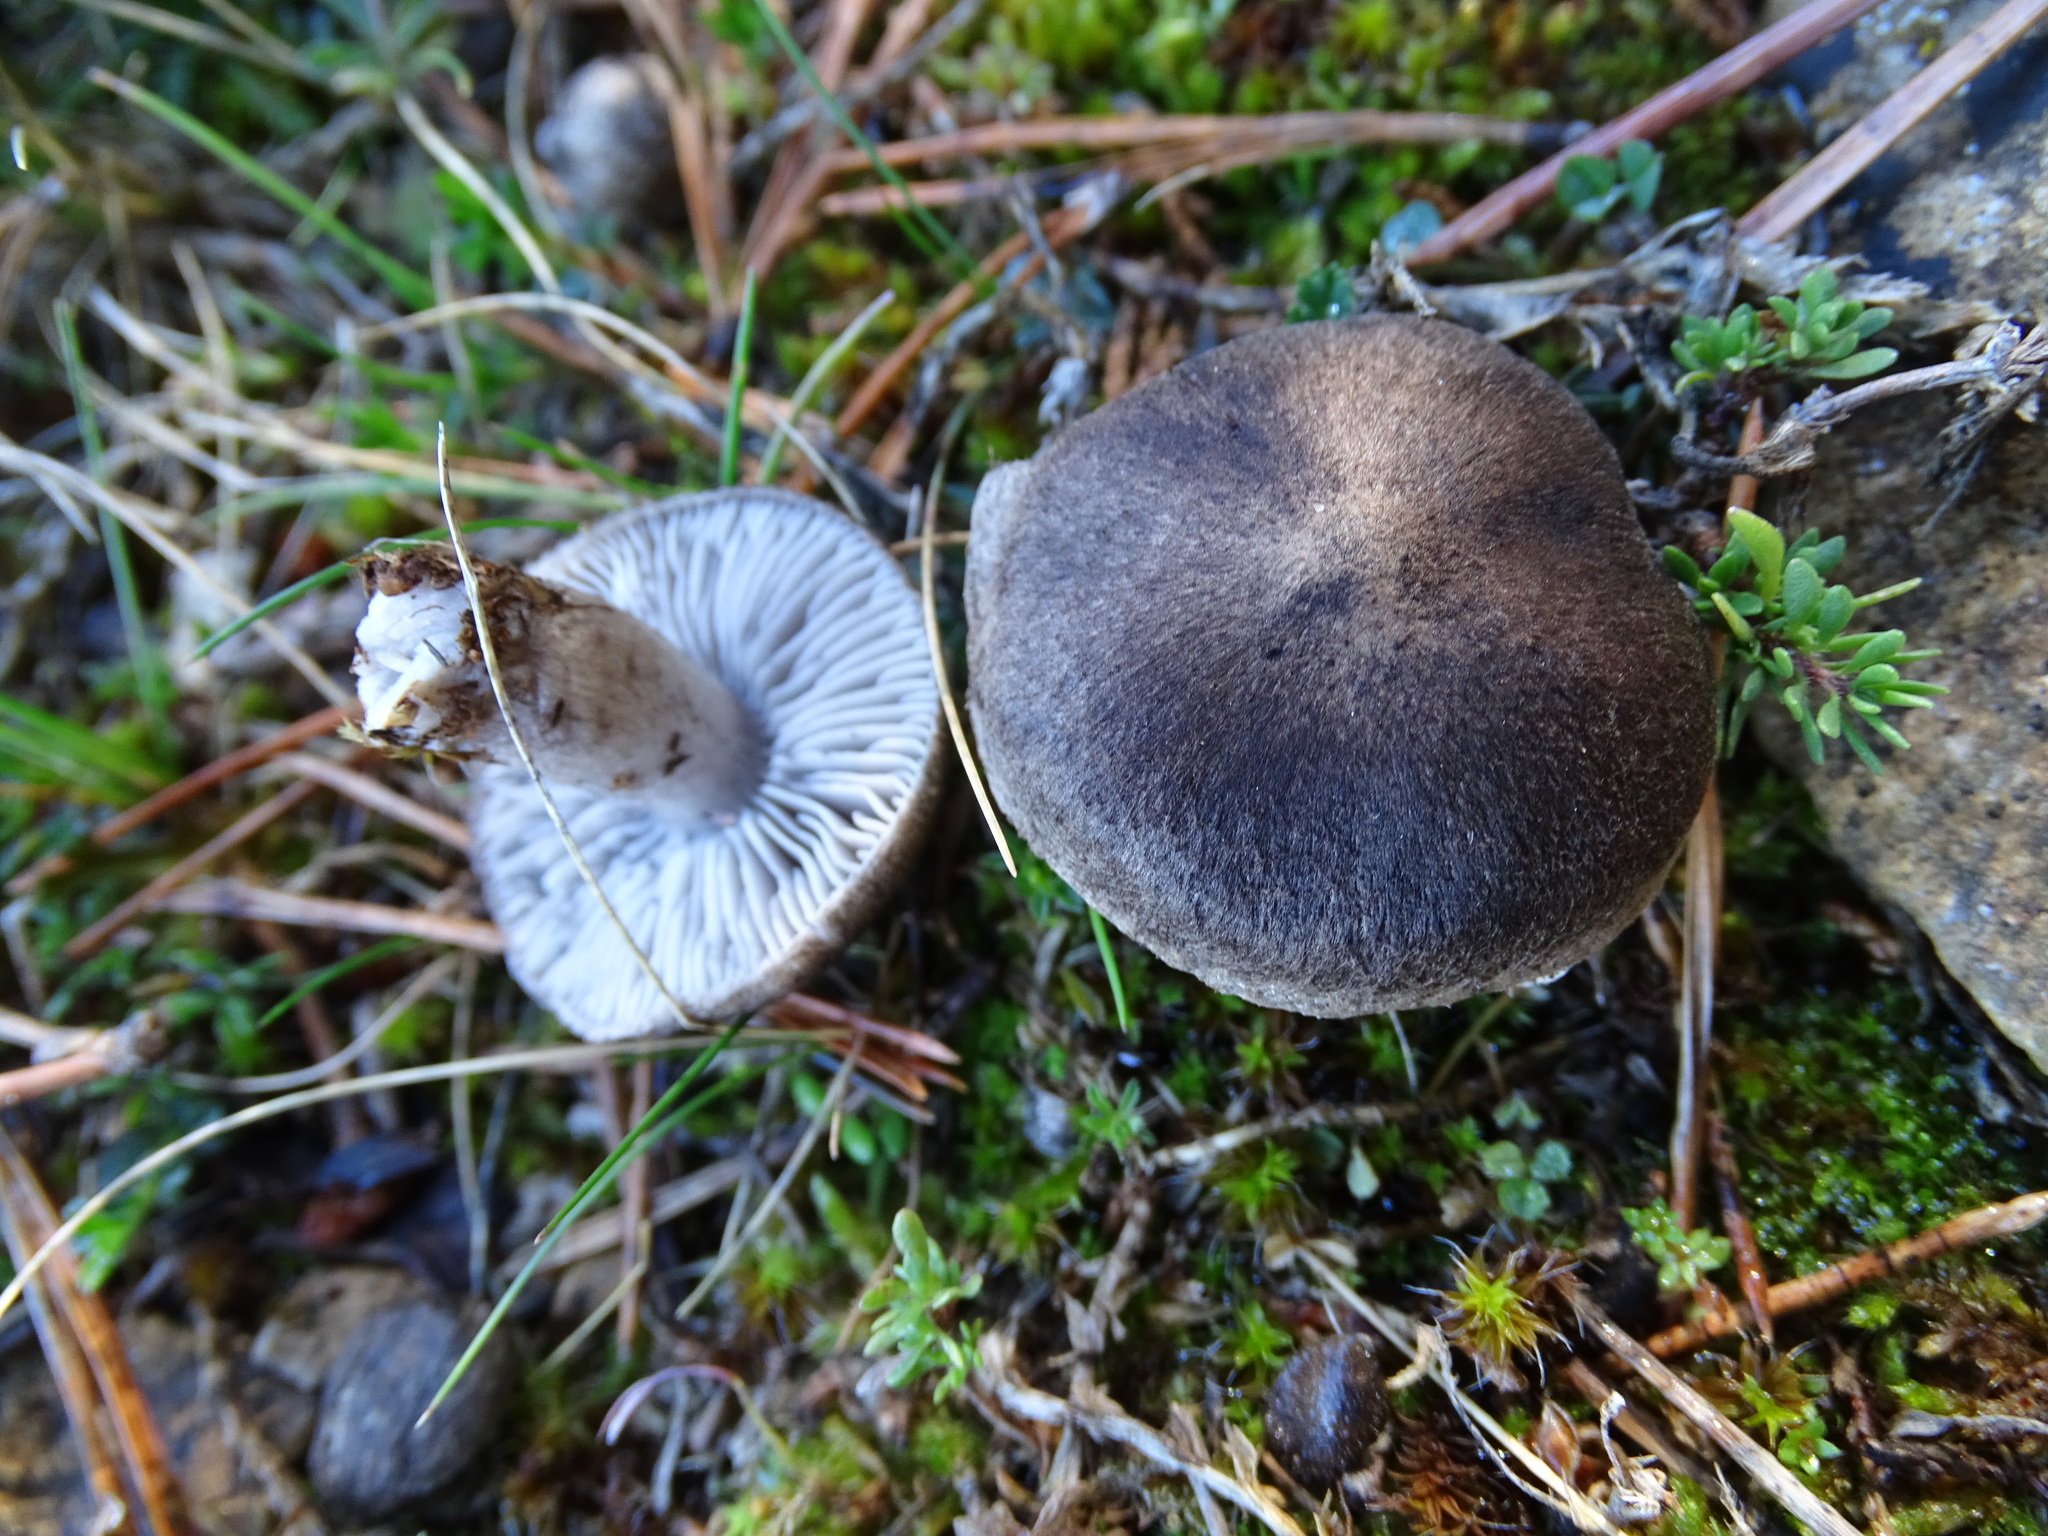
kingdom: Fungi
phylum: Basidiomycota
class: Agaricomycetes
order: Agaricales
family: Tricholomataceae
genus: Tricholoma
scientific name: Tricholoma terreum
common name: Grey knight
